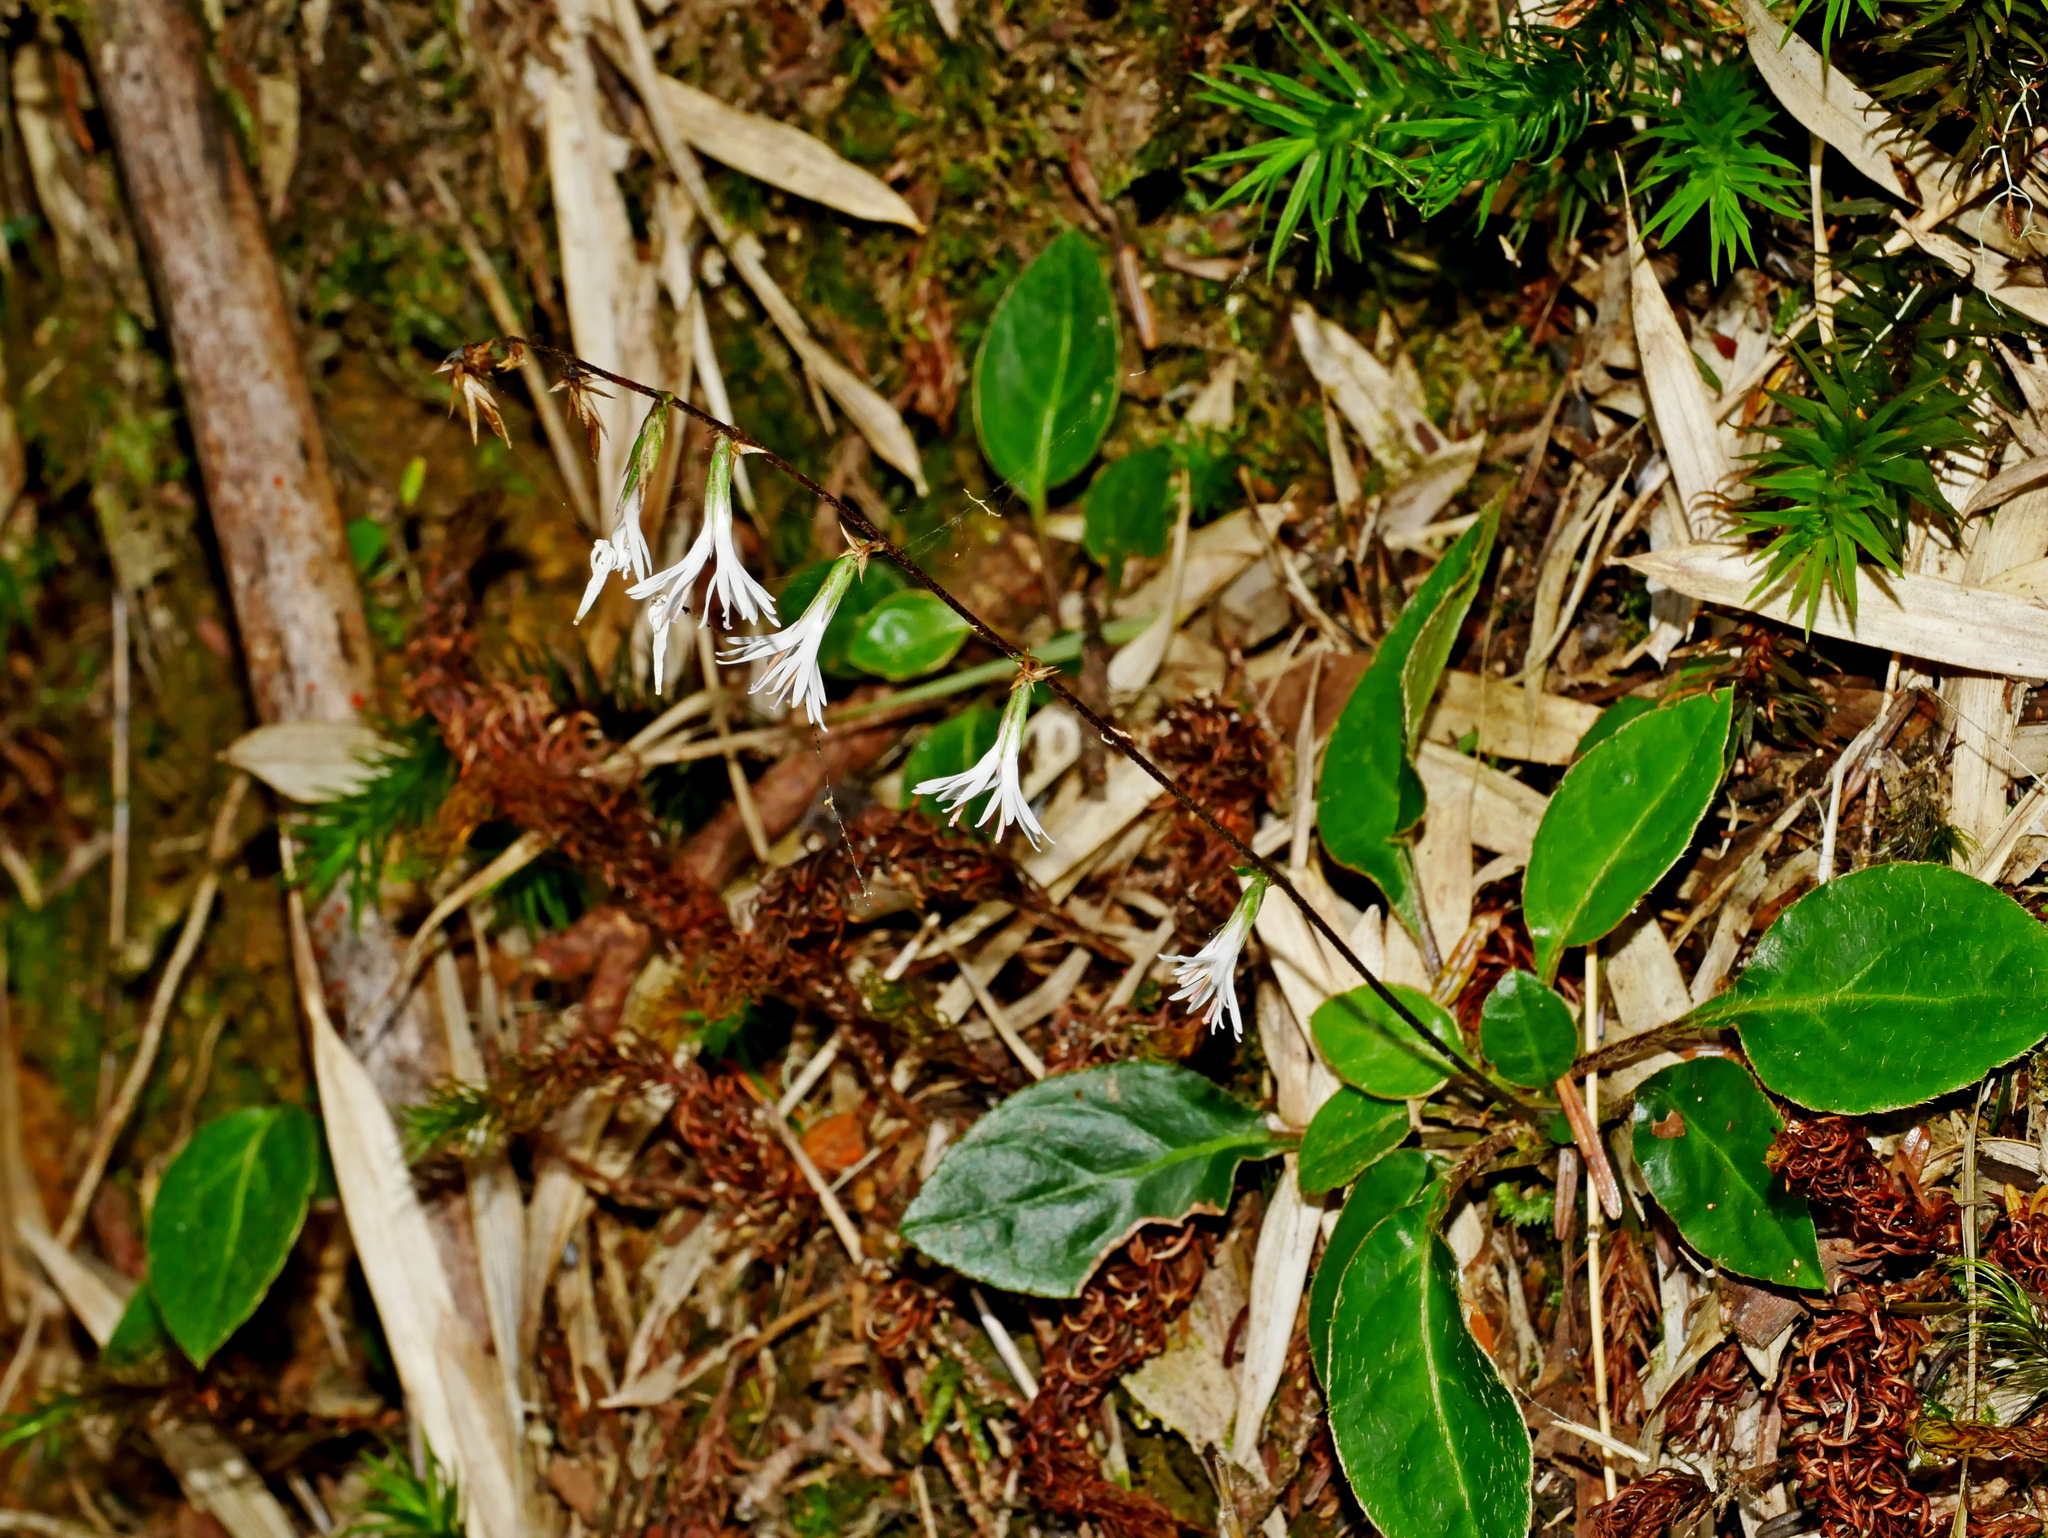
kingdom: Plantae
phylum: Tracheophyta
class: Magnoliopsida
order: Asterales
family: Asteraceae
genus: Ainsliaea
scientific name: Ainsliaea henryi
